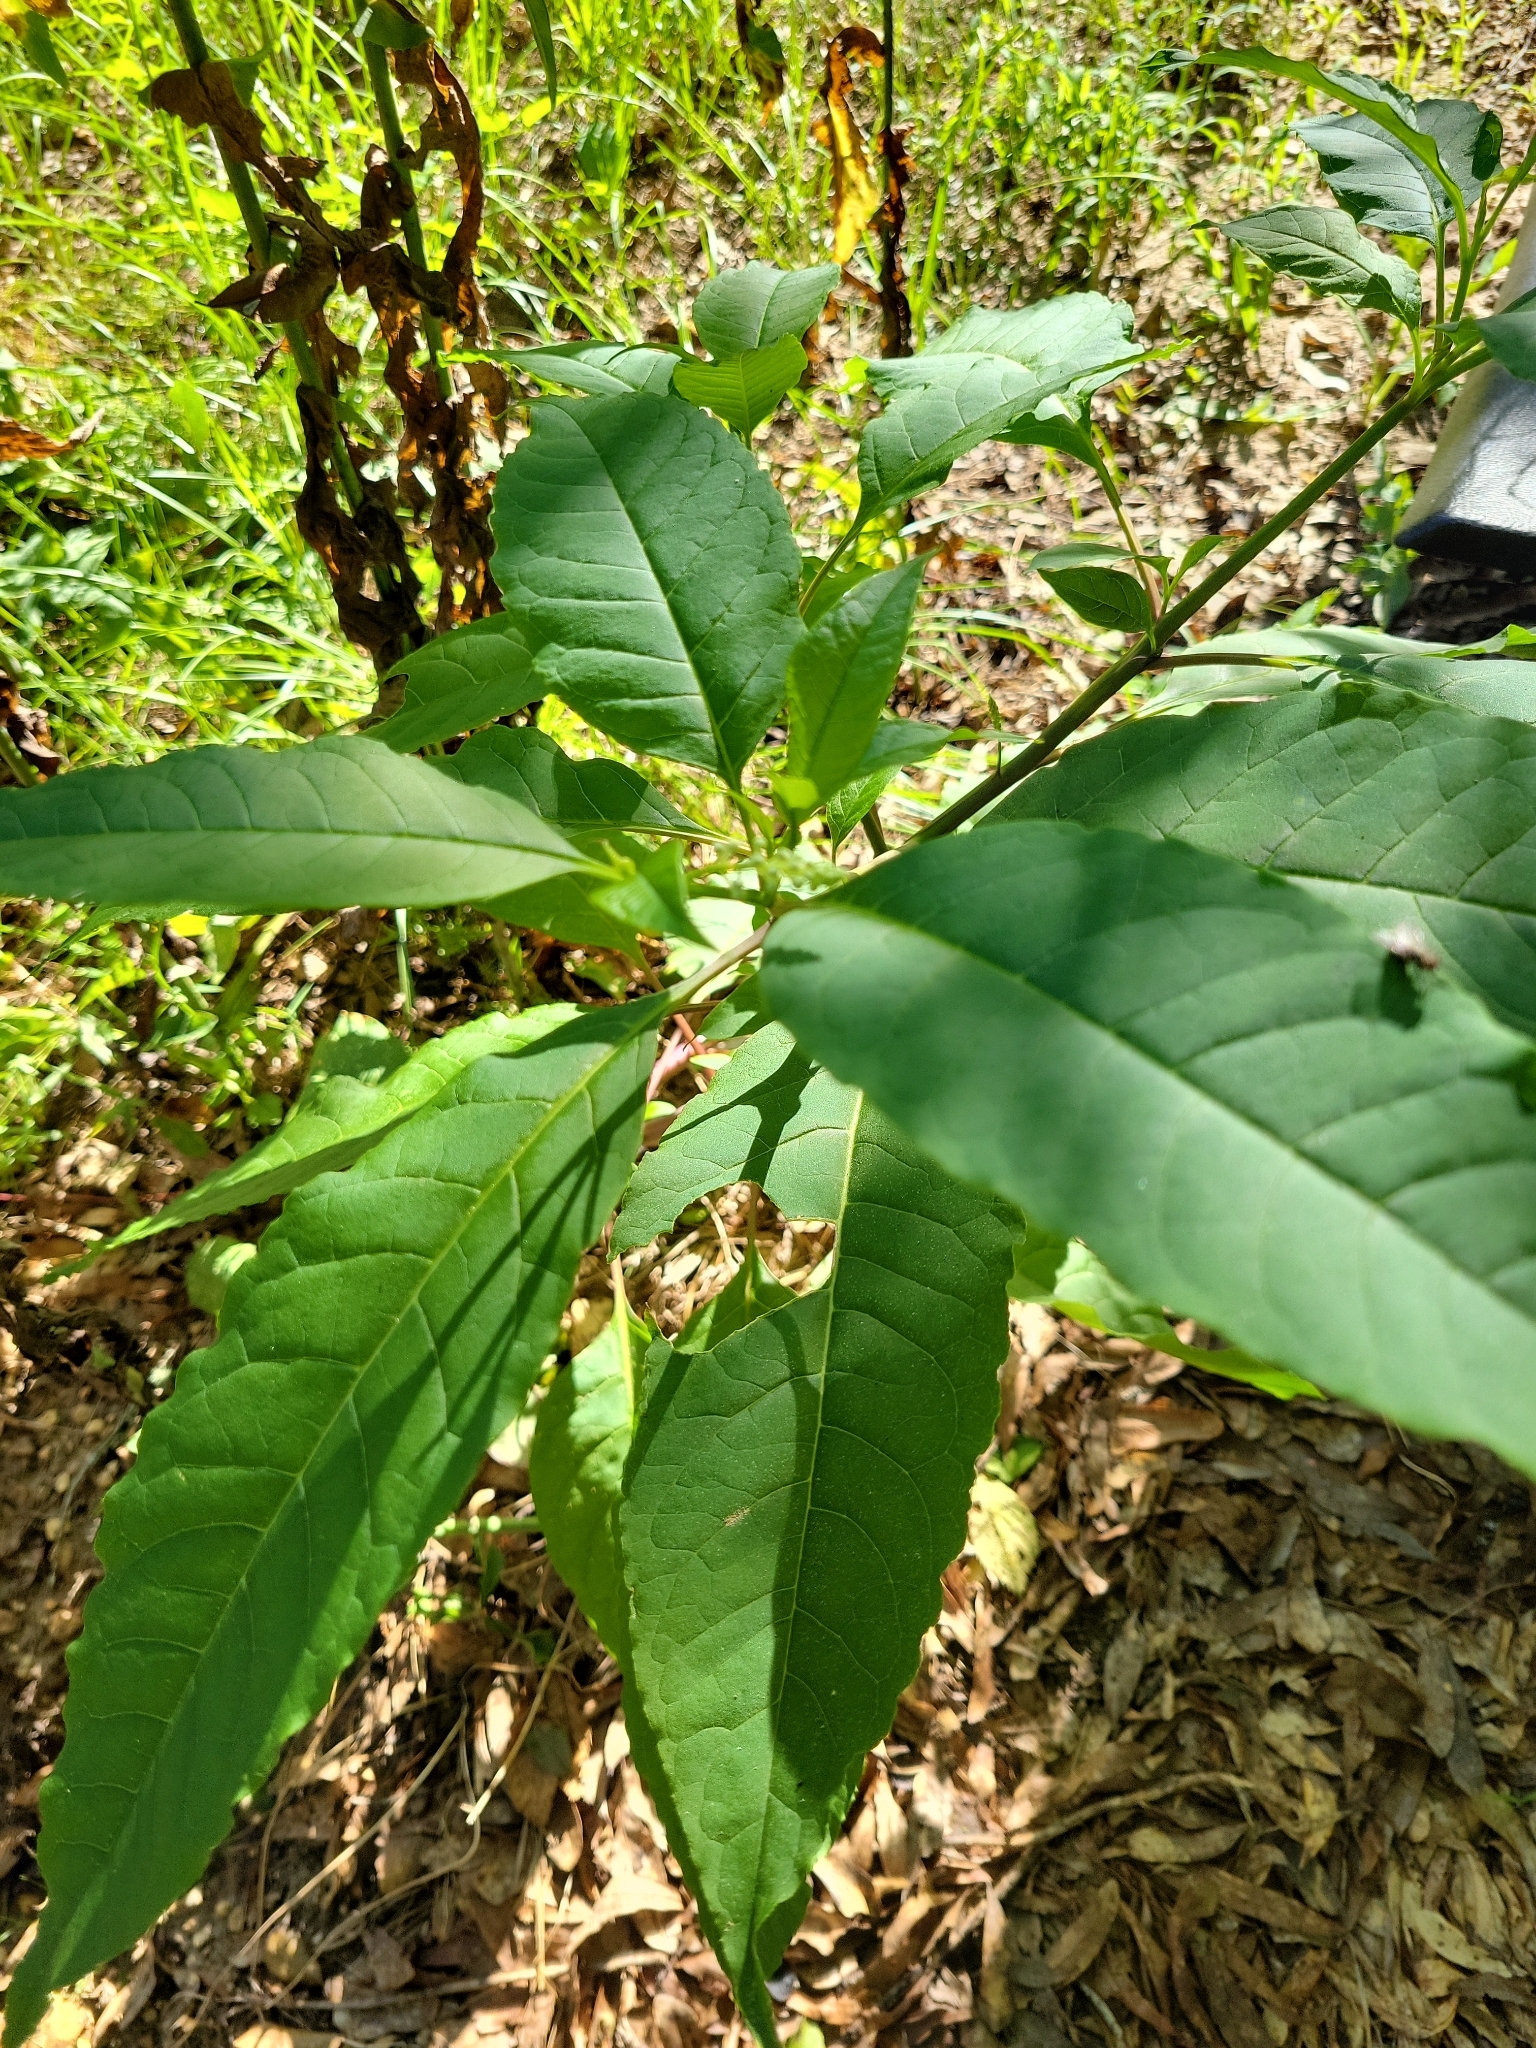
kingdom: Plantae
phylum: Tracheophyta
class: Magnoliopsida
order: Caryophyllales
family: Phytolaccaceae
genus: Phytolacca
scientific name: Phytolacca americana
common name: American pokeweed
